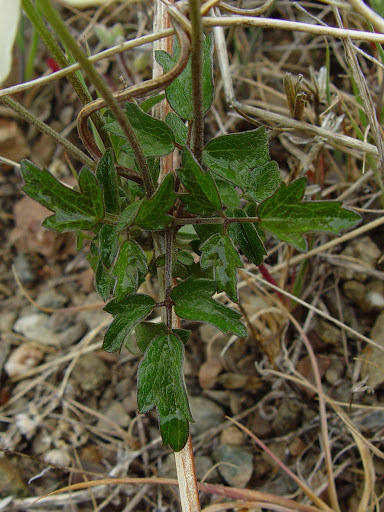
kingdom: Plantae
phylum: Tracheophyta
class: Magnoliopsida
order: Ranunculales
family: Ranunculaceae
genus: Clematis
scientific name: Clematis lasiantha
